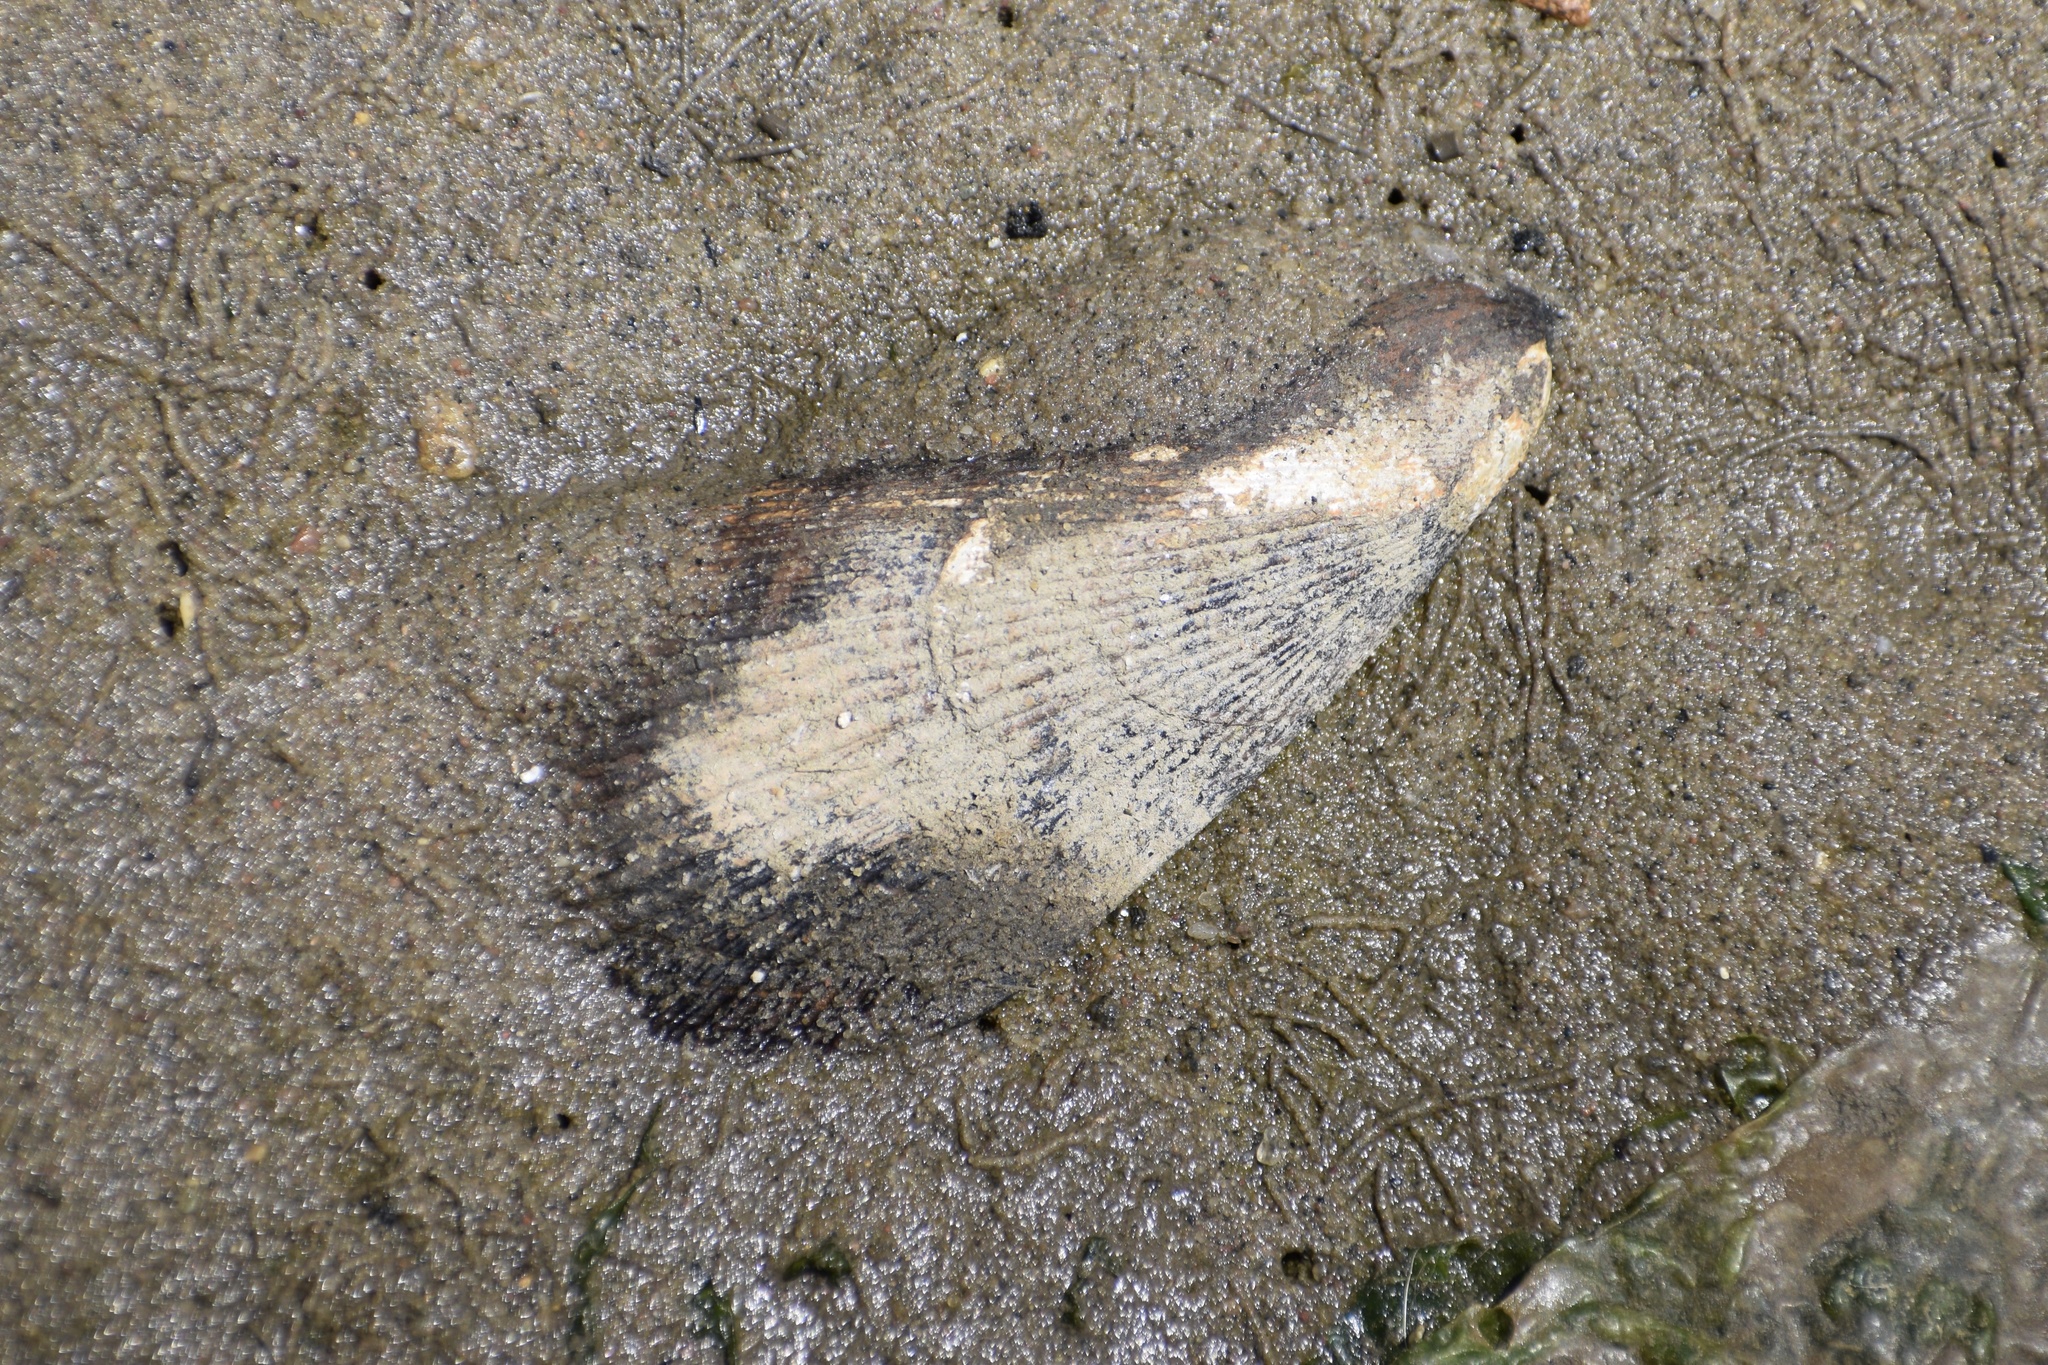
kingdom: Animalia
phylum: Mollusca
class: Bivalvia
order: Mytilida
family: Mytilidae
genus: Geukensia
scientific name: Geukensia demissa
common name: Ribbed mussel
